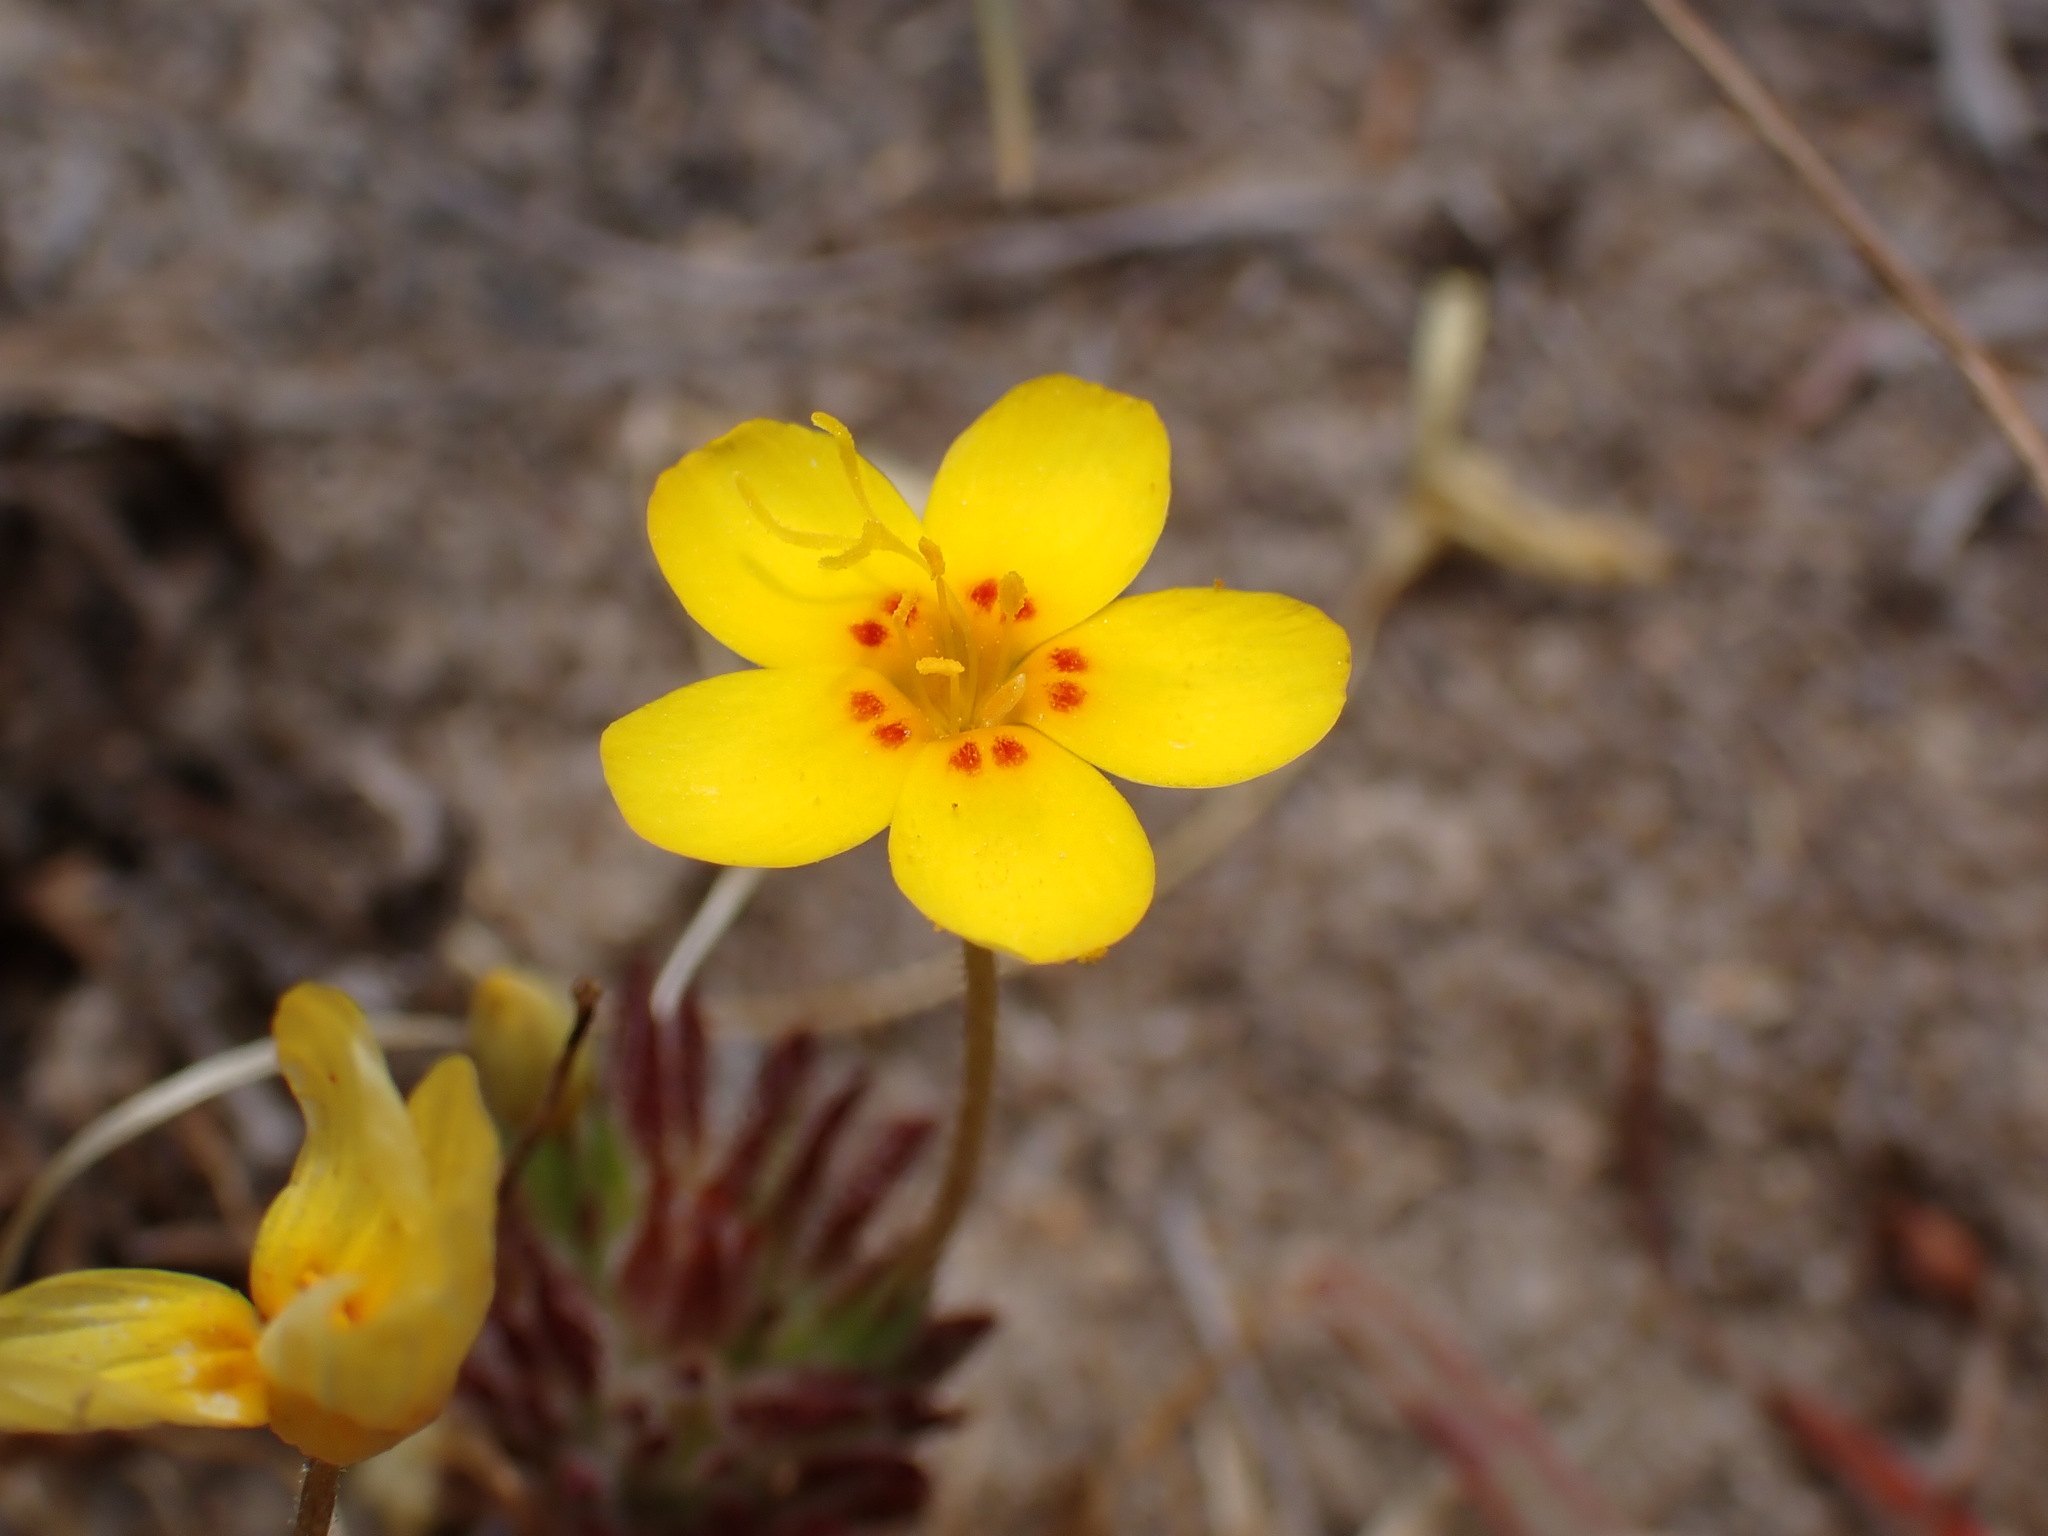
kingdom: Plantae
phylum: Tracheophyta
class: Magnoliopsida
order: Ericales
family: Polemoniaceae
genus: Leptosiphon
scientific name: Leptosiphon croceus
